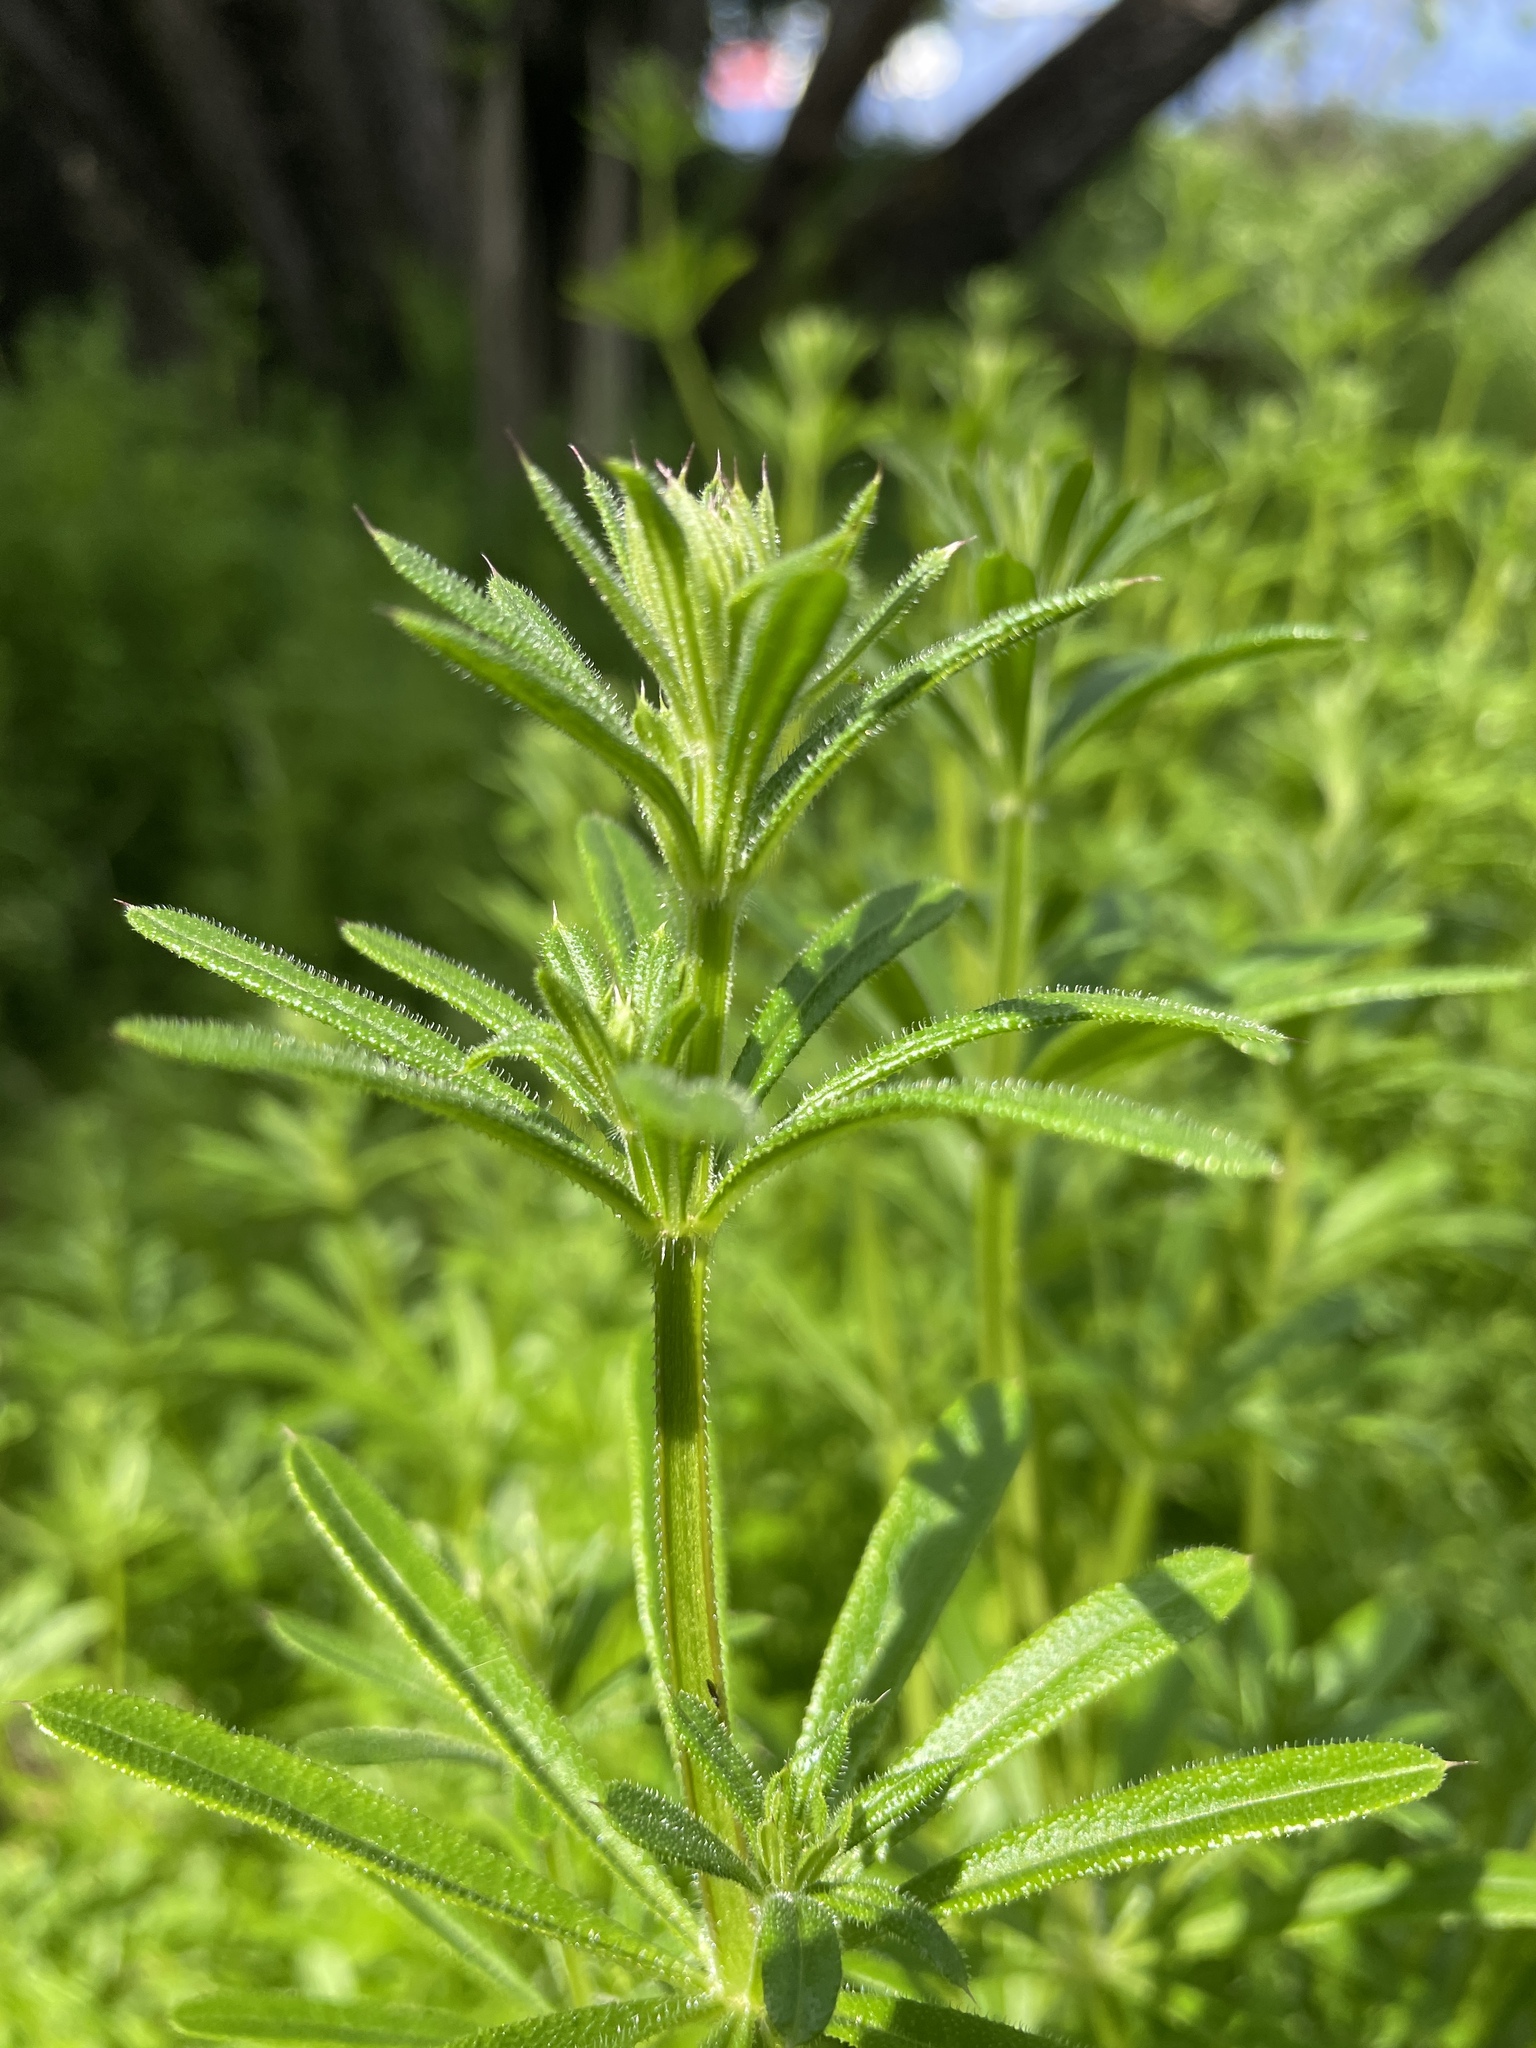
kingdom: Plantae
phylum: Tracheophyta
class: Magnoliopsida
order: Gentianales
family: Rubiaceae
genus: Galium
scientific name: Galium aparine
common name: Cleavers
